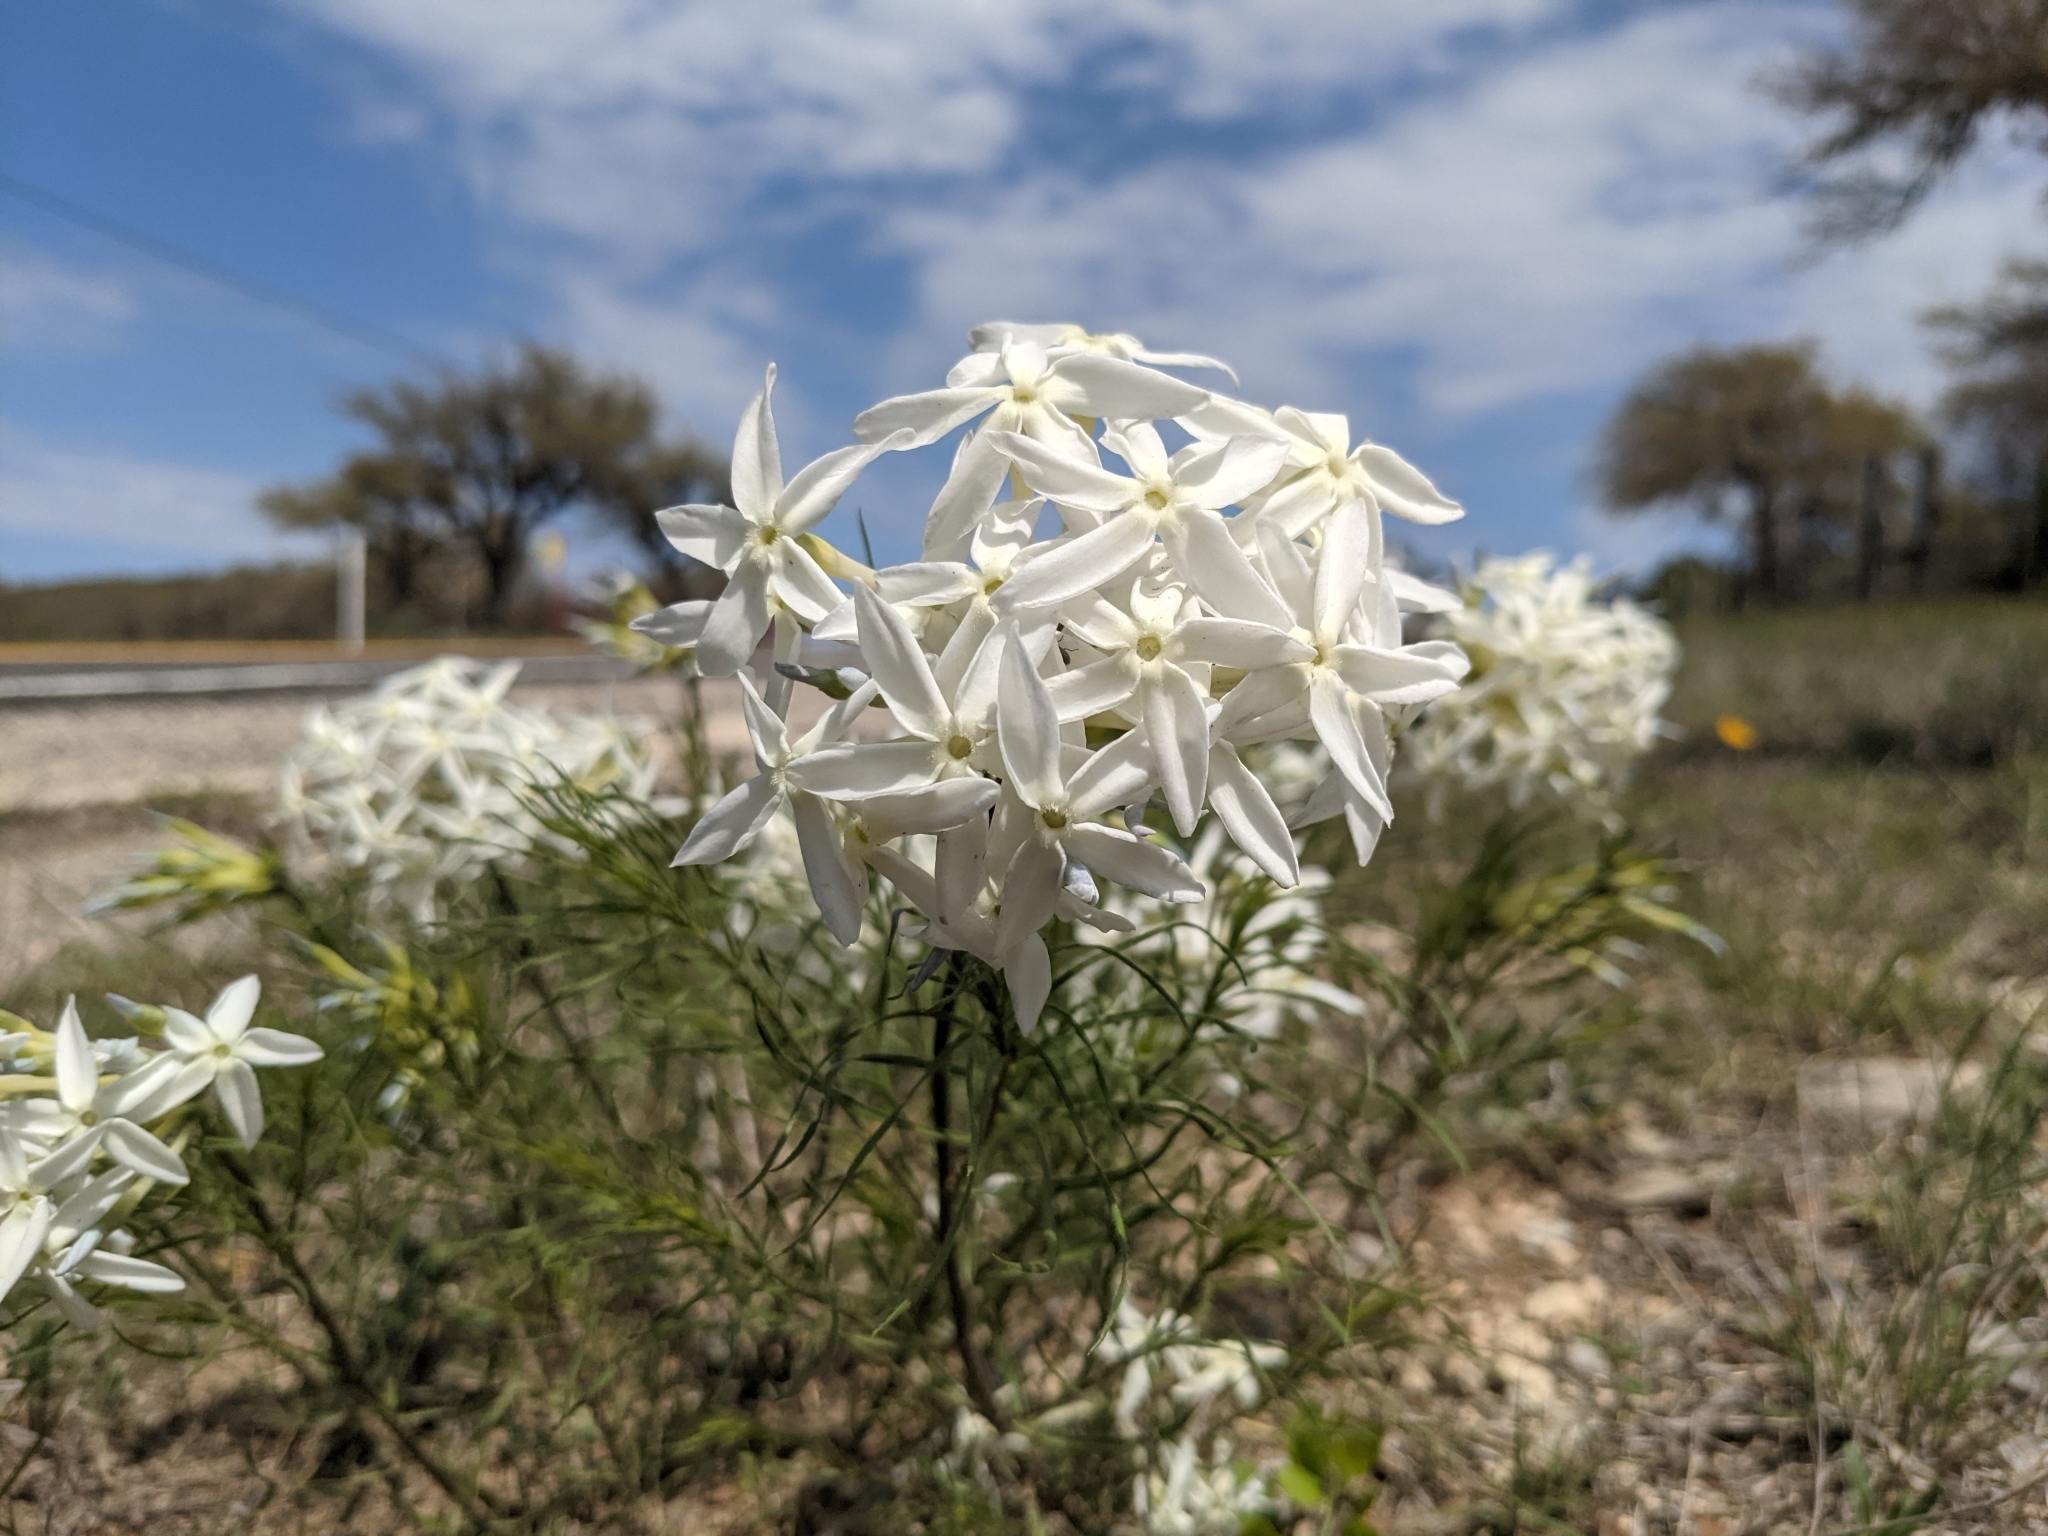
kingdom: Plantae
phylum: Tracheophyta
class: Magnoliopsida
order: Gentianales
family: Apocynaceae
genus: Amsonia
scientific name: Amsonia longiflora
